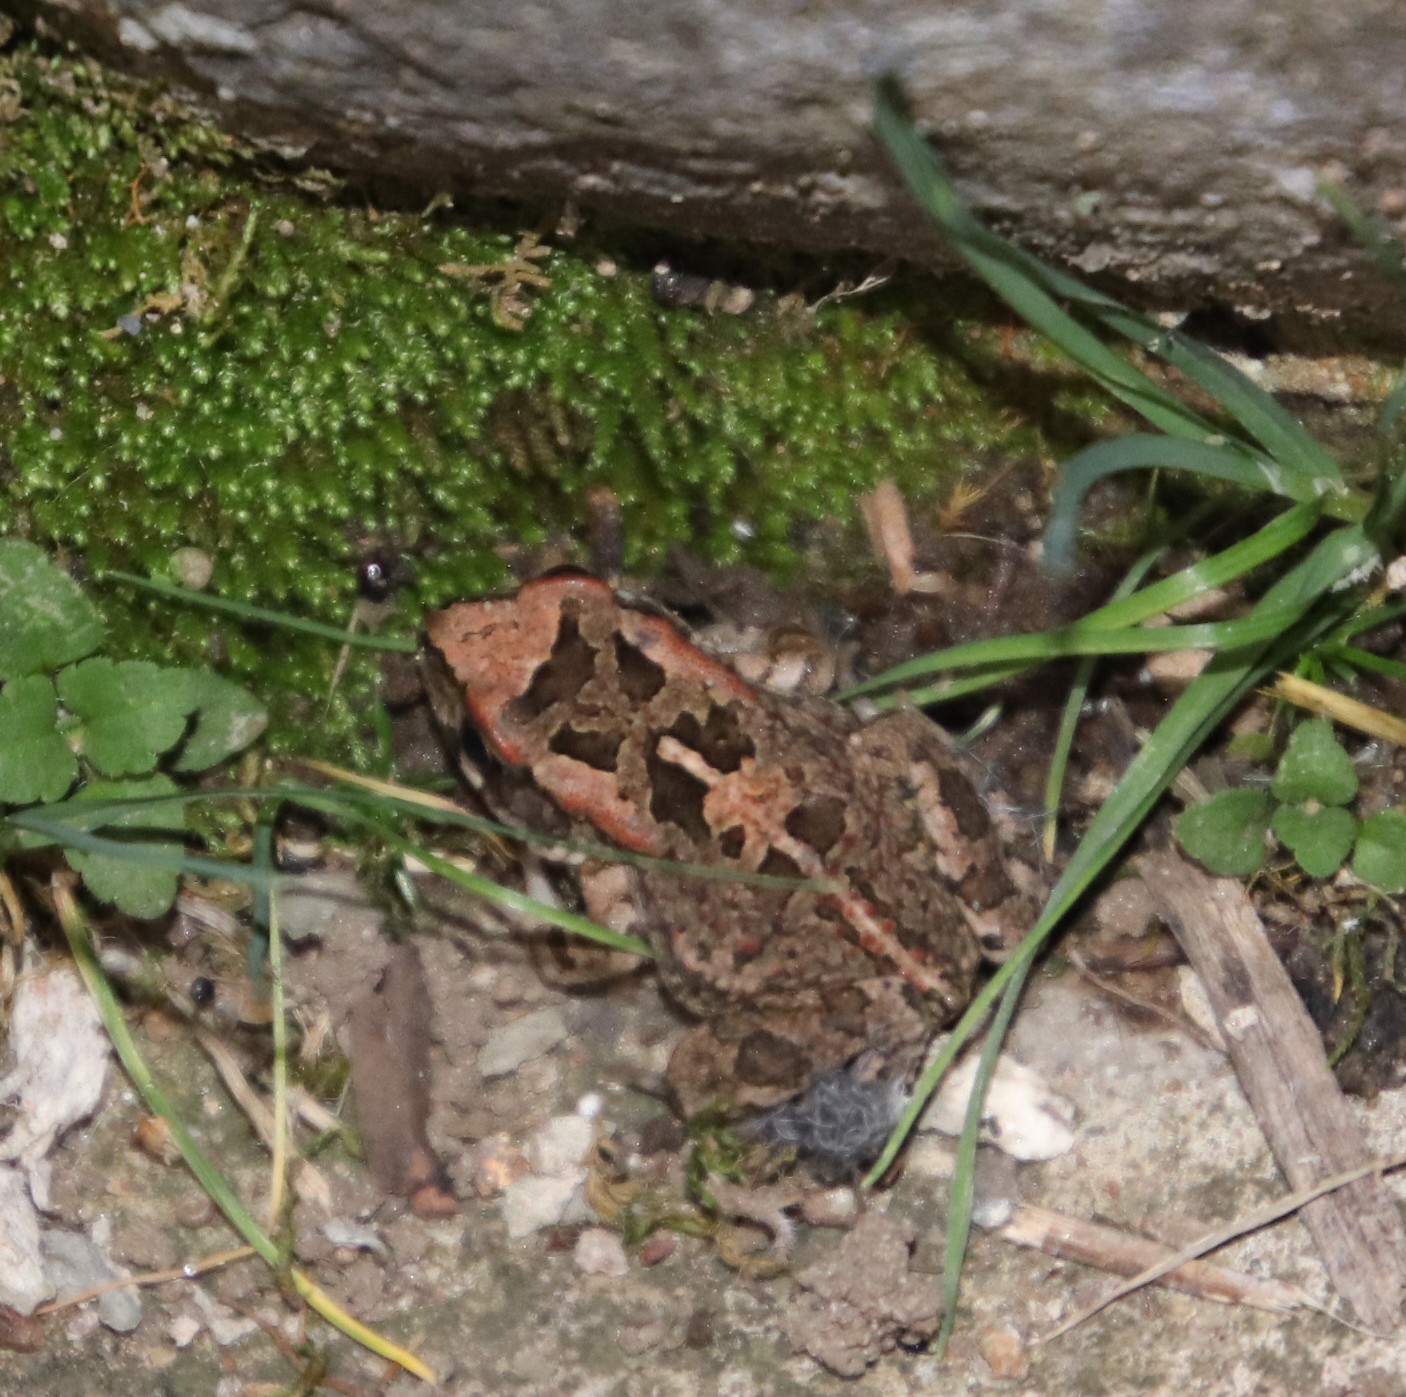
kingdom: Animalia
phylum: Chordata
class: Amphibia
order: Anura
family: Bufonidae
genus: Sclerophrys
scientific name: Sclerophrys capensis
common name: Ranger’s toad
